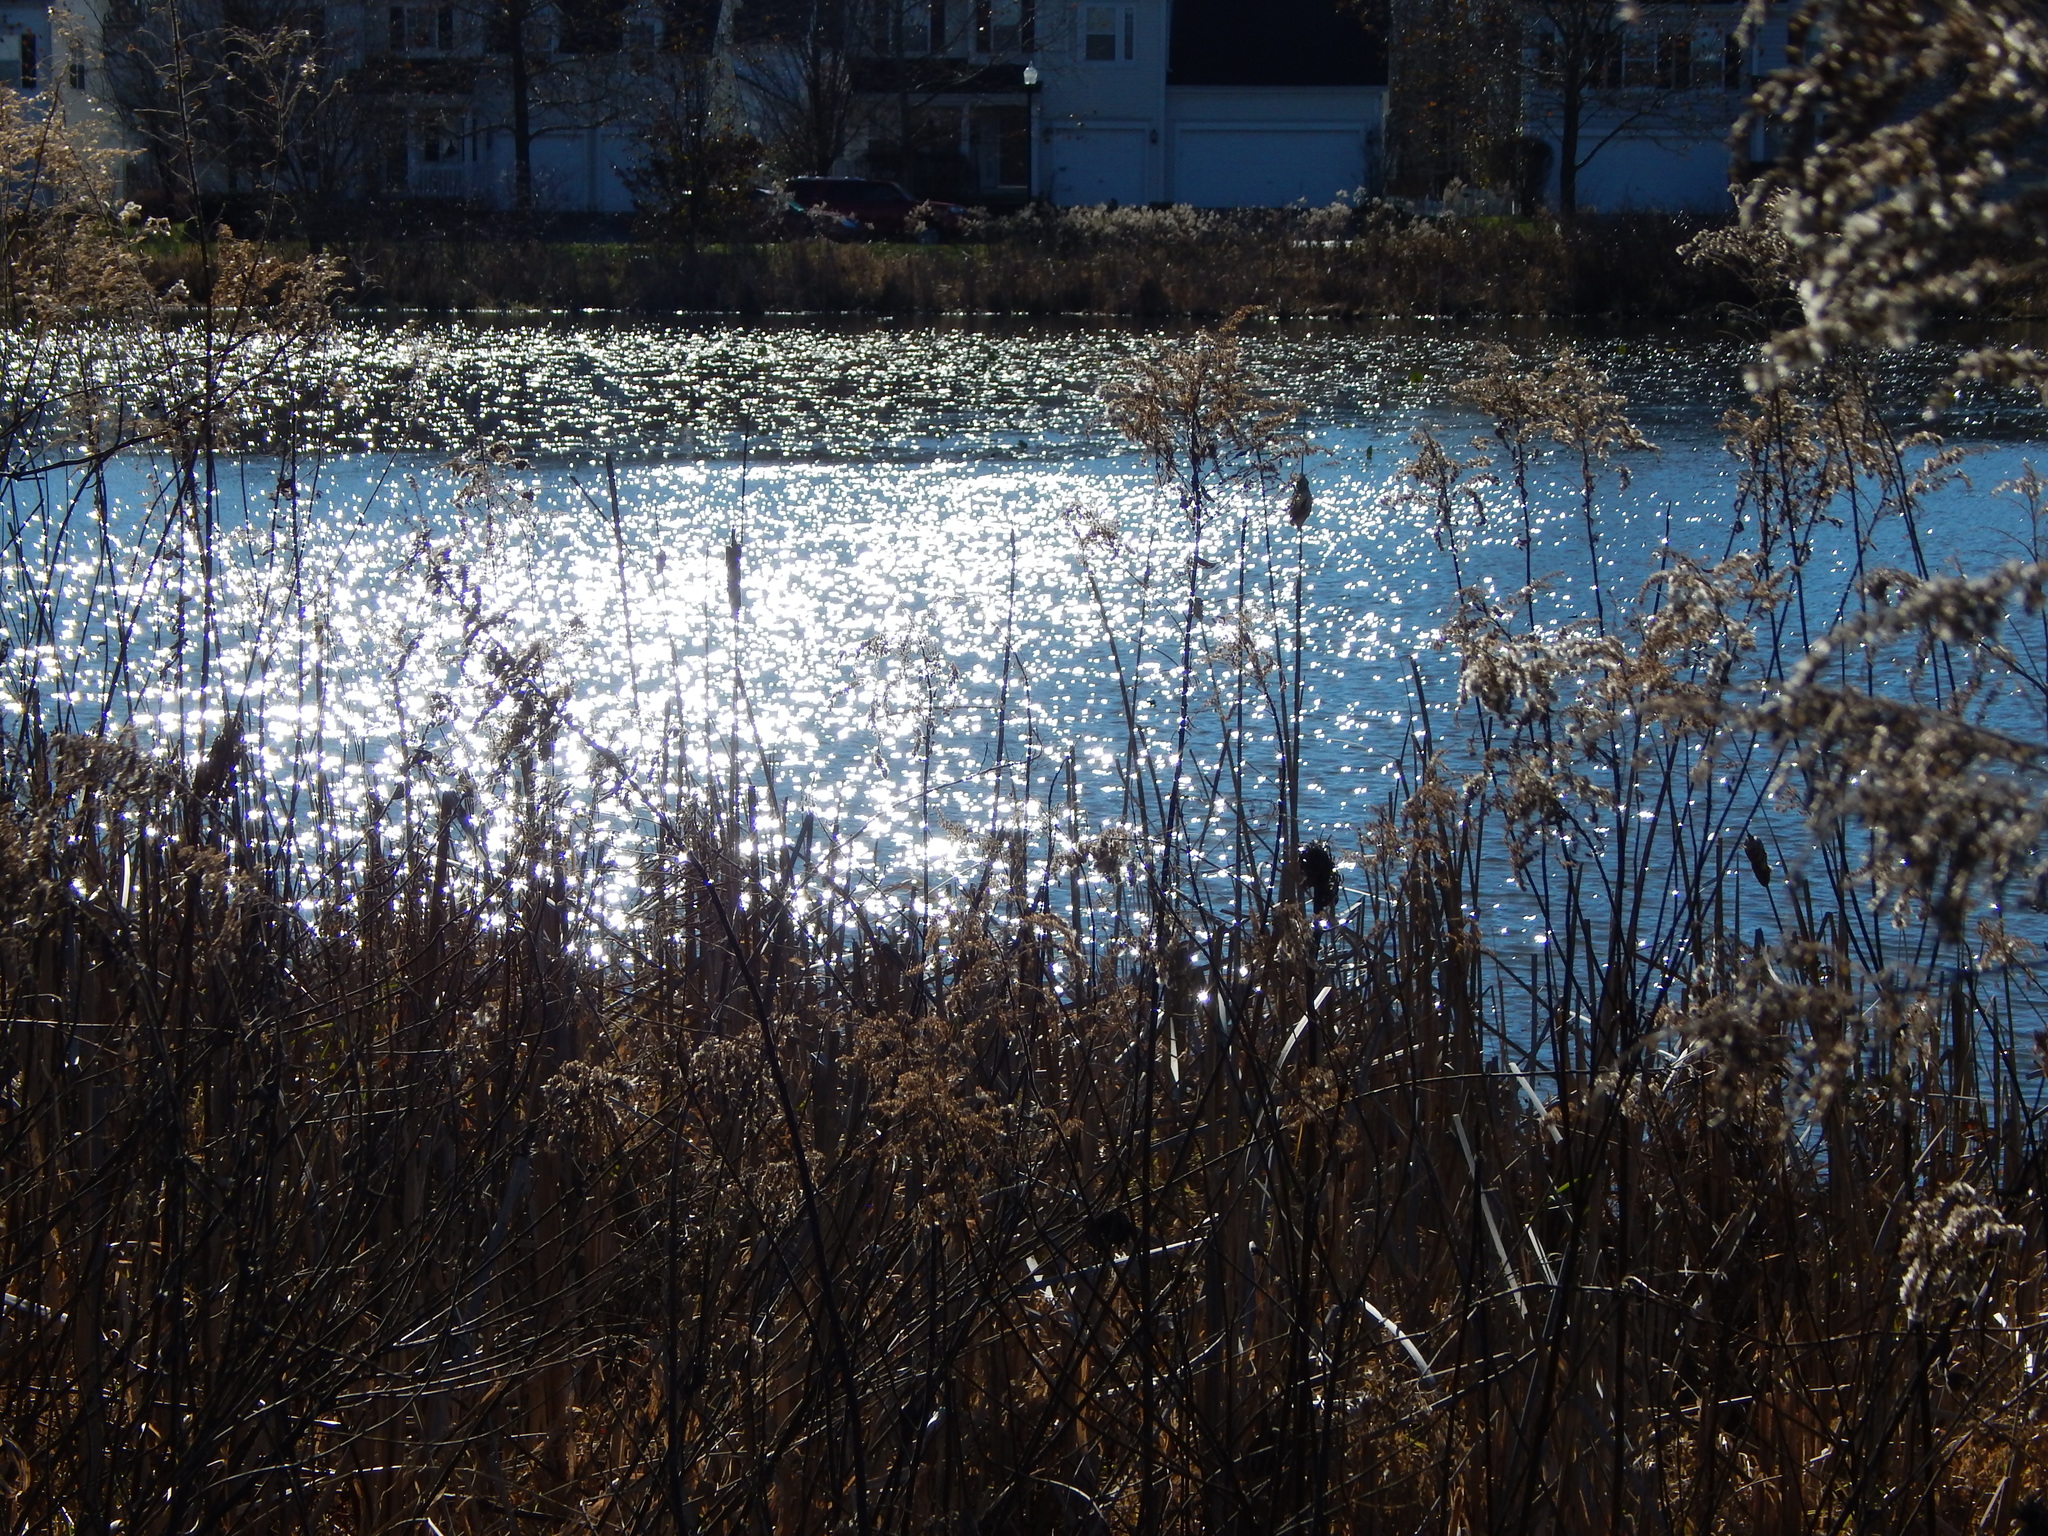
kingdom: Animalia
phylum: Chordata
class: Aves
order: Anseriformes
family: Anatidae
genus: Spatula
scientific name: Spatula clypeata
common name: Northern shoveler
